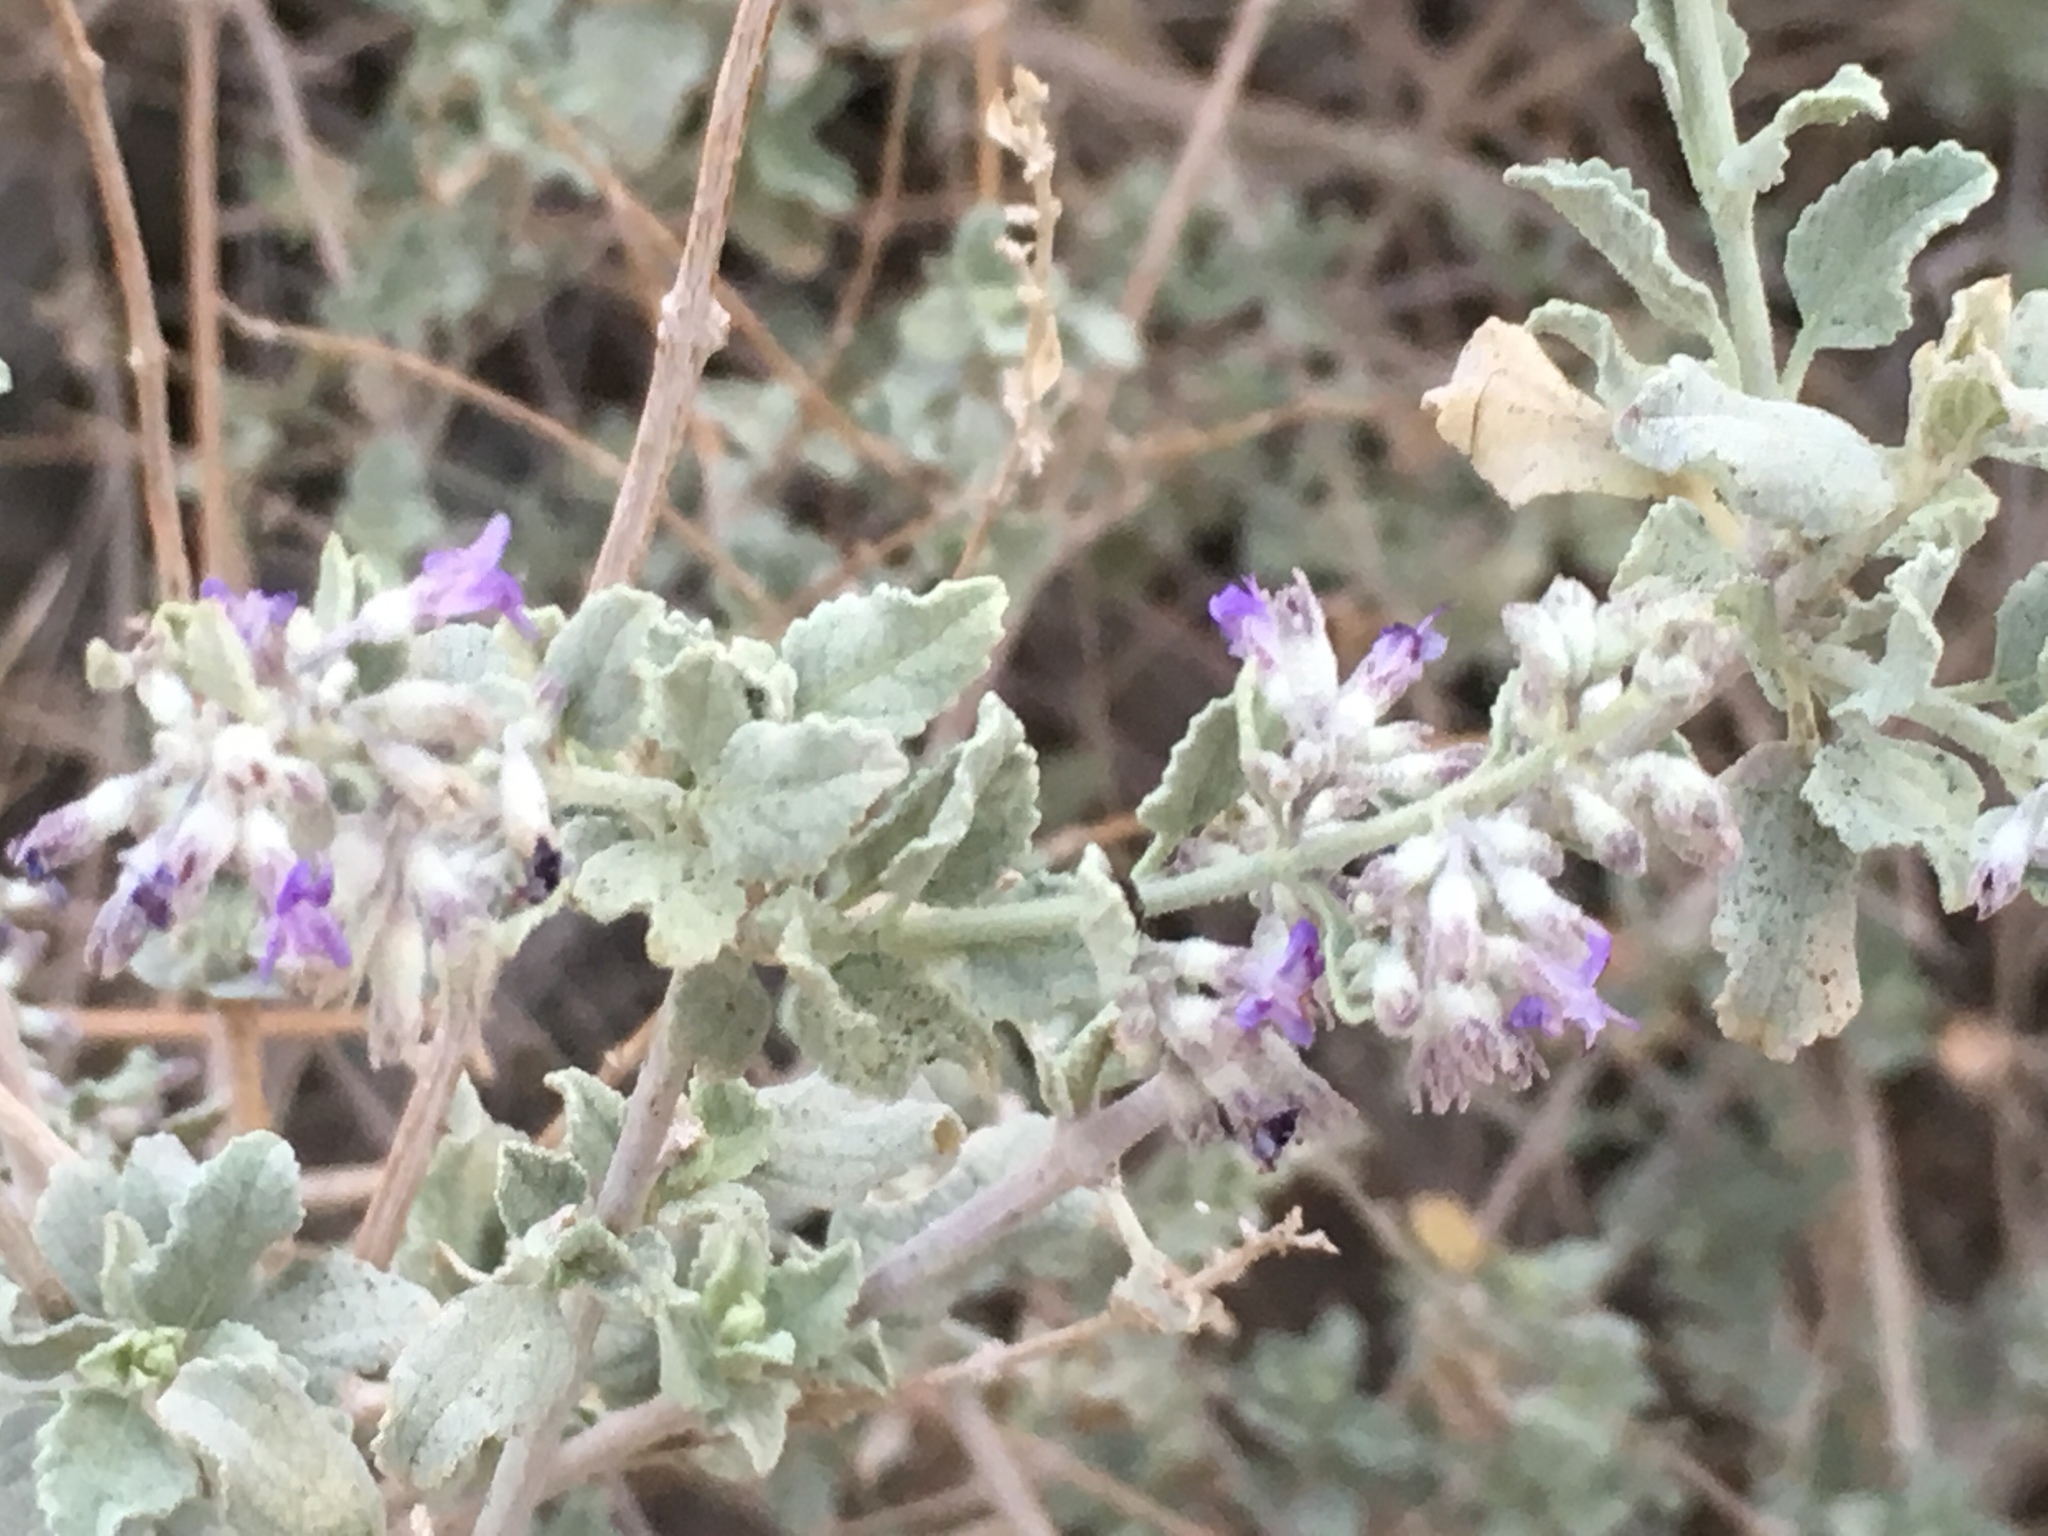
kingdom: Plantae
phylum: Tracheophyta
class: Magnoliopsida
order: Lamiales
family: Lamiaceae
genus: Condea
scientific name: Condea emoryi
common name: Chia
